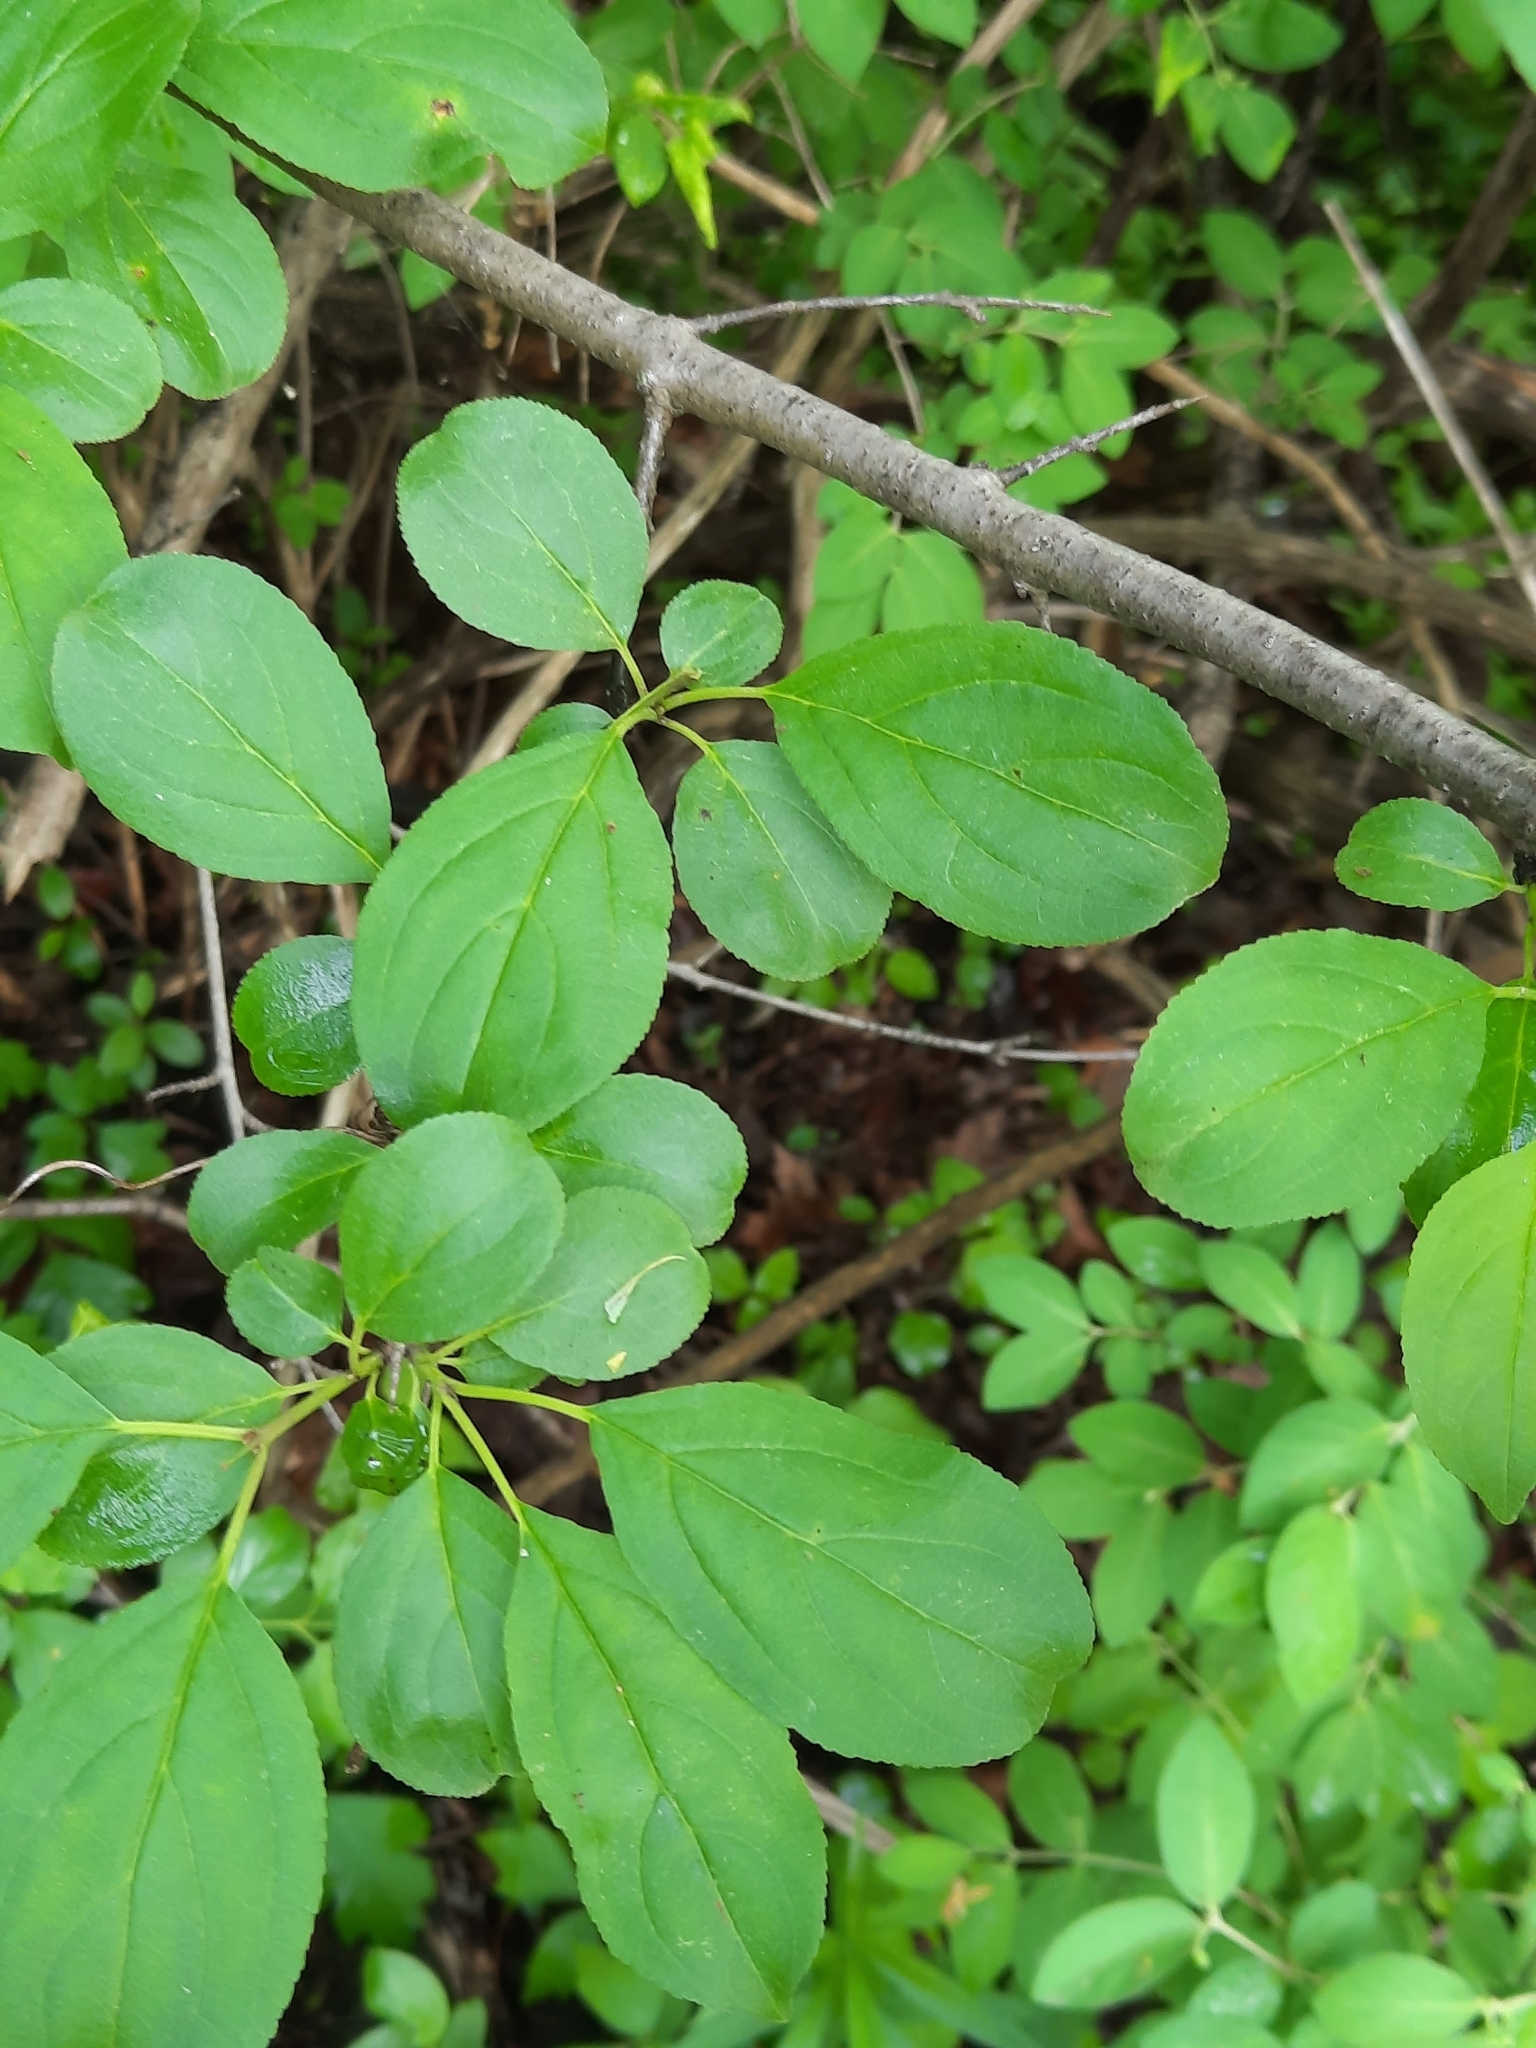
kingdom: Plantae
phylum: Tracheophyta
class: Magnoliopsida
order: Rosales
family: Rhamnaceae
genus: Rhamnus
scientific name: Rhamnus cathartica
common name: Common buckthorn
